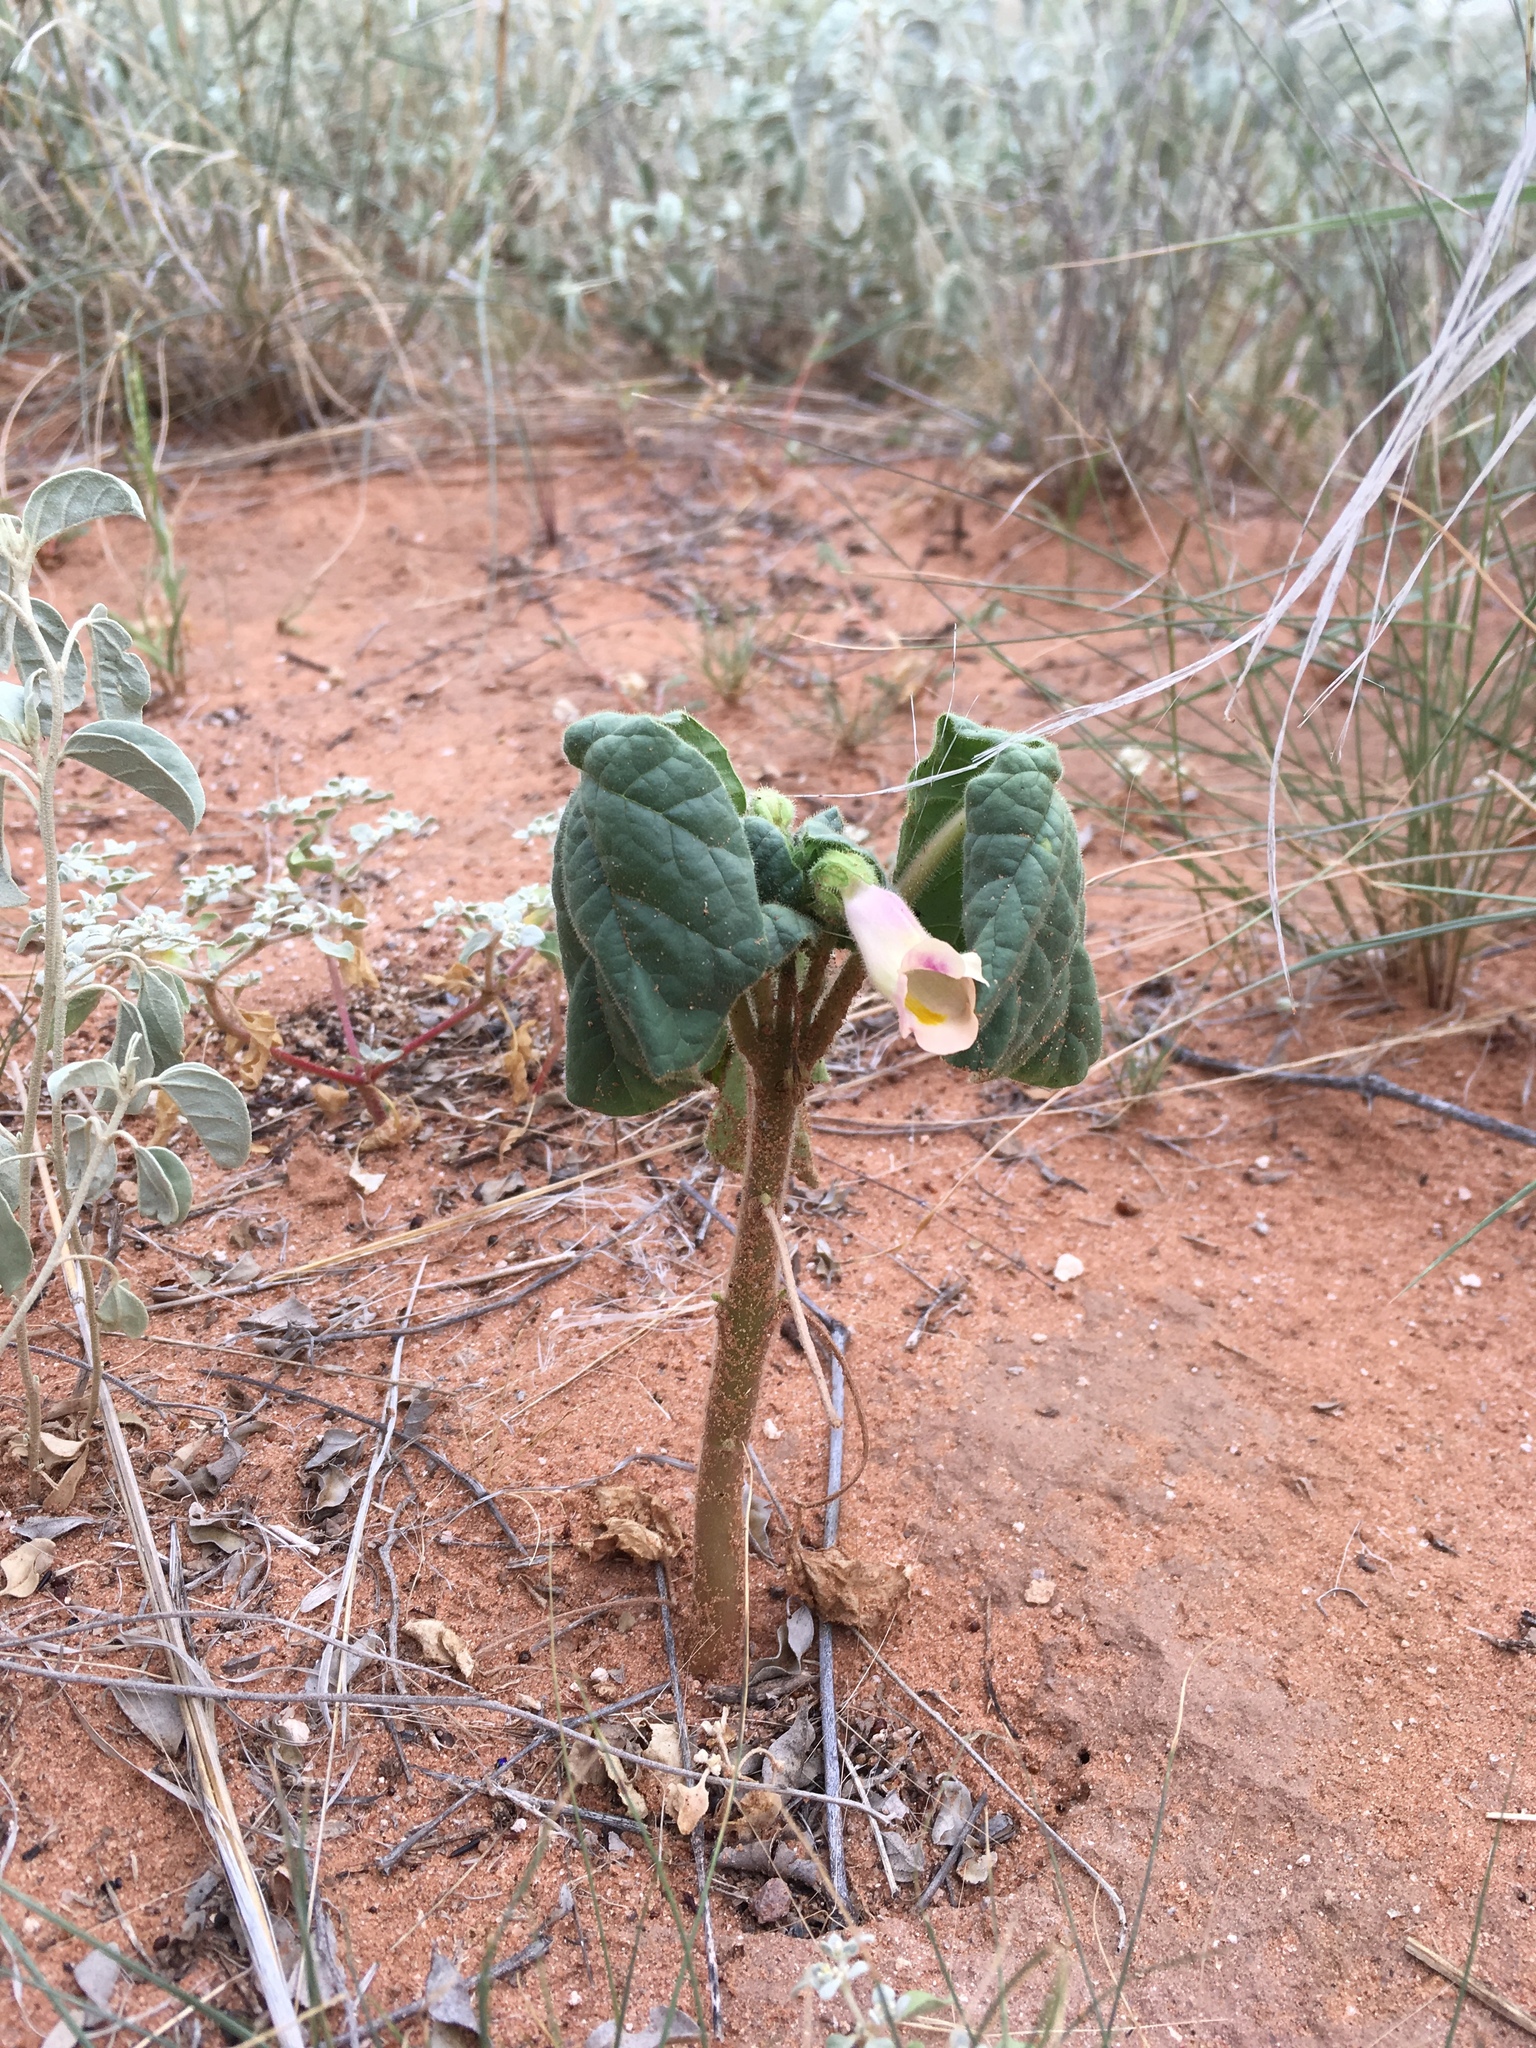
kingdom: Plantae
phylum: Tracheophyta
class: Magnoliopsida
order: Lamiales
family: Martyniaceae
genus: Proboscidea
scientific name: Proboscidea parviflora
